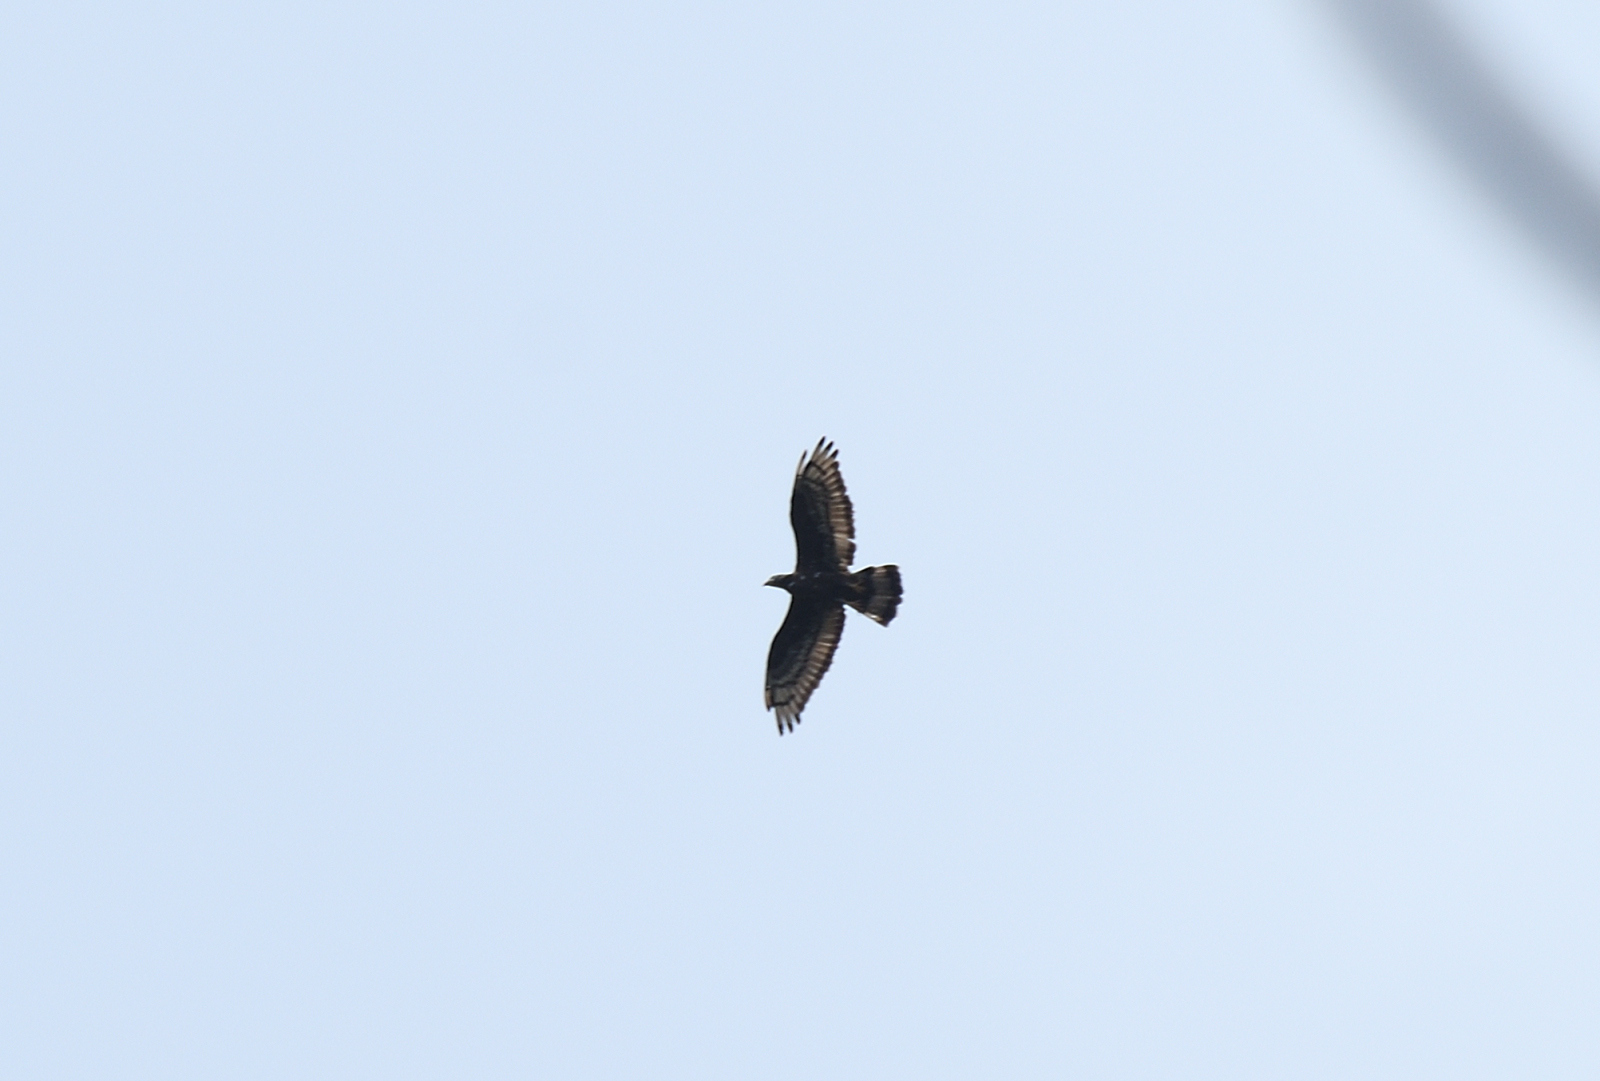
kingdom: Animalia
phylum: Chordata
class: Aves
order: Accipitriformes
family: Accipitridae
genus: Pernis
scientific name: Pernis ptilorhynchus
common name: Crested honey buzzard
